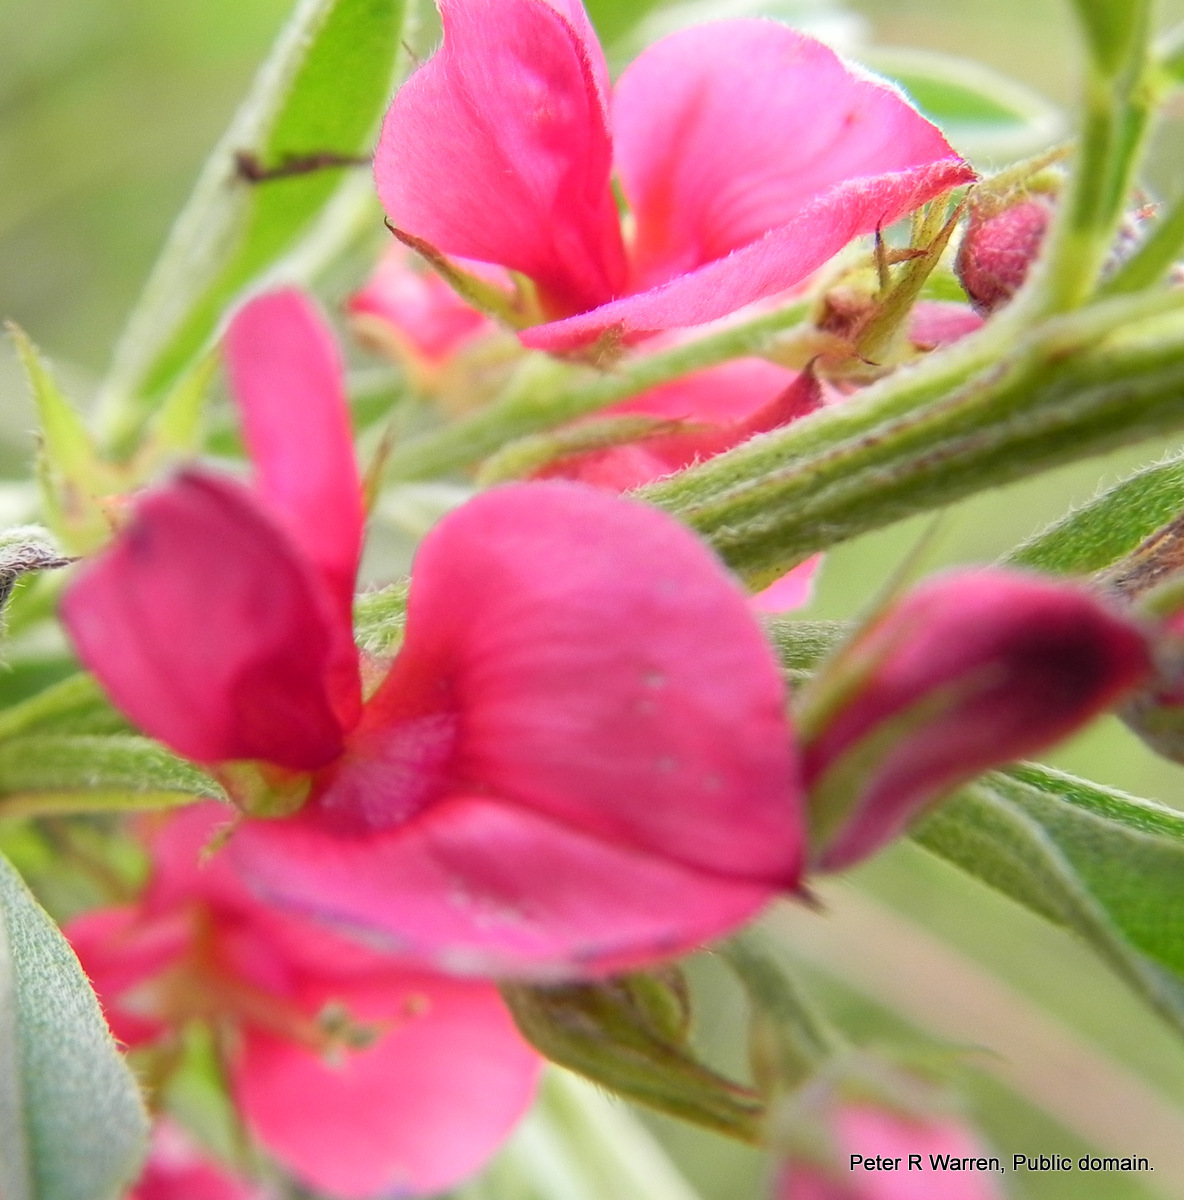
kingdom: Plantae
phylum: Tracheophyta
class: Magnoliopsida
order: Fabales
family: Fabaceae
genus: Indigofera
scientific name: Indigofera hilaris
